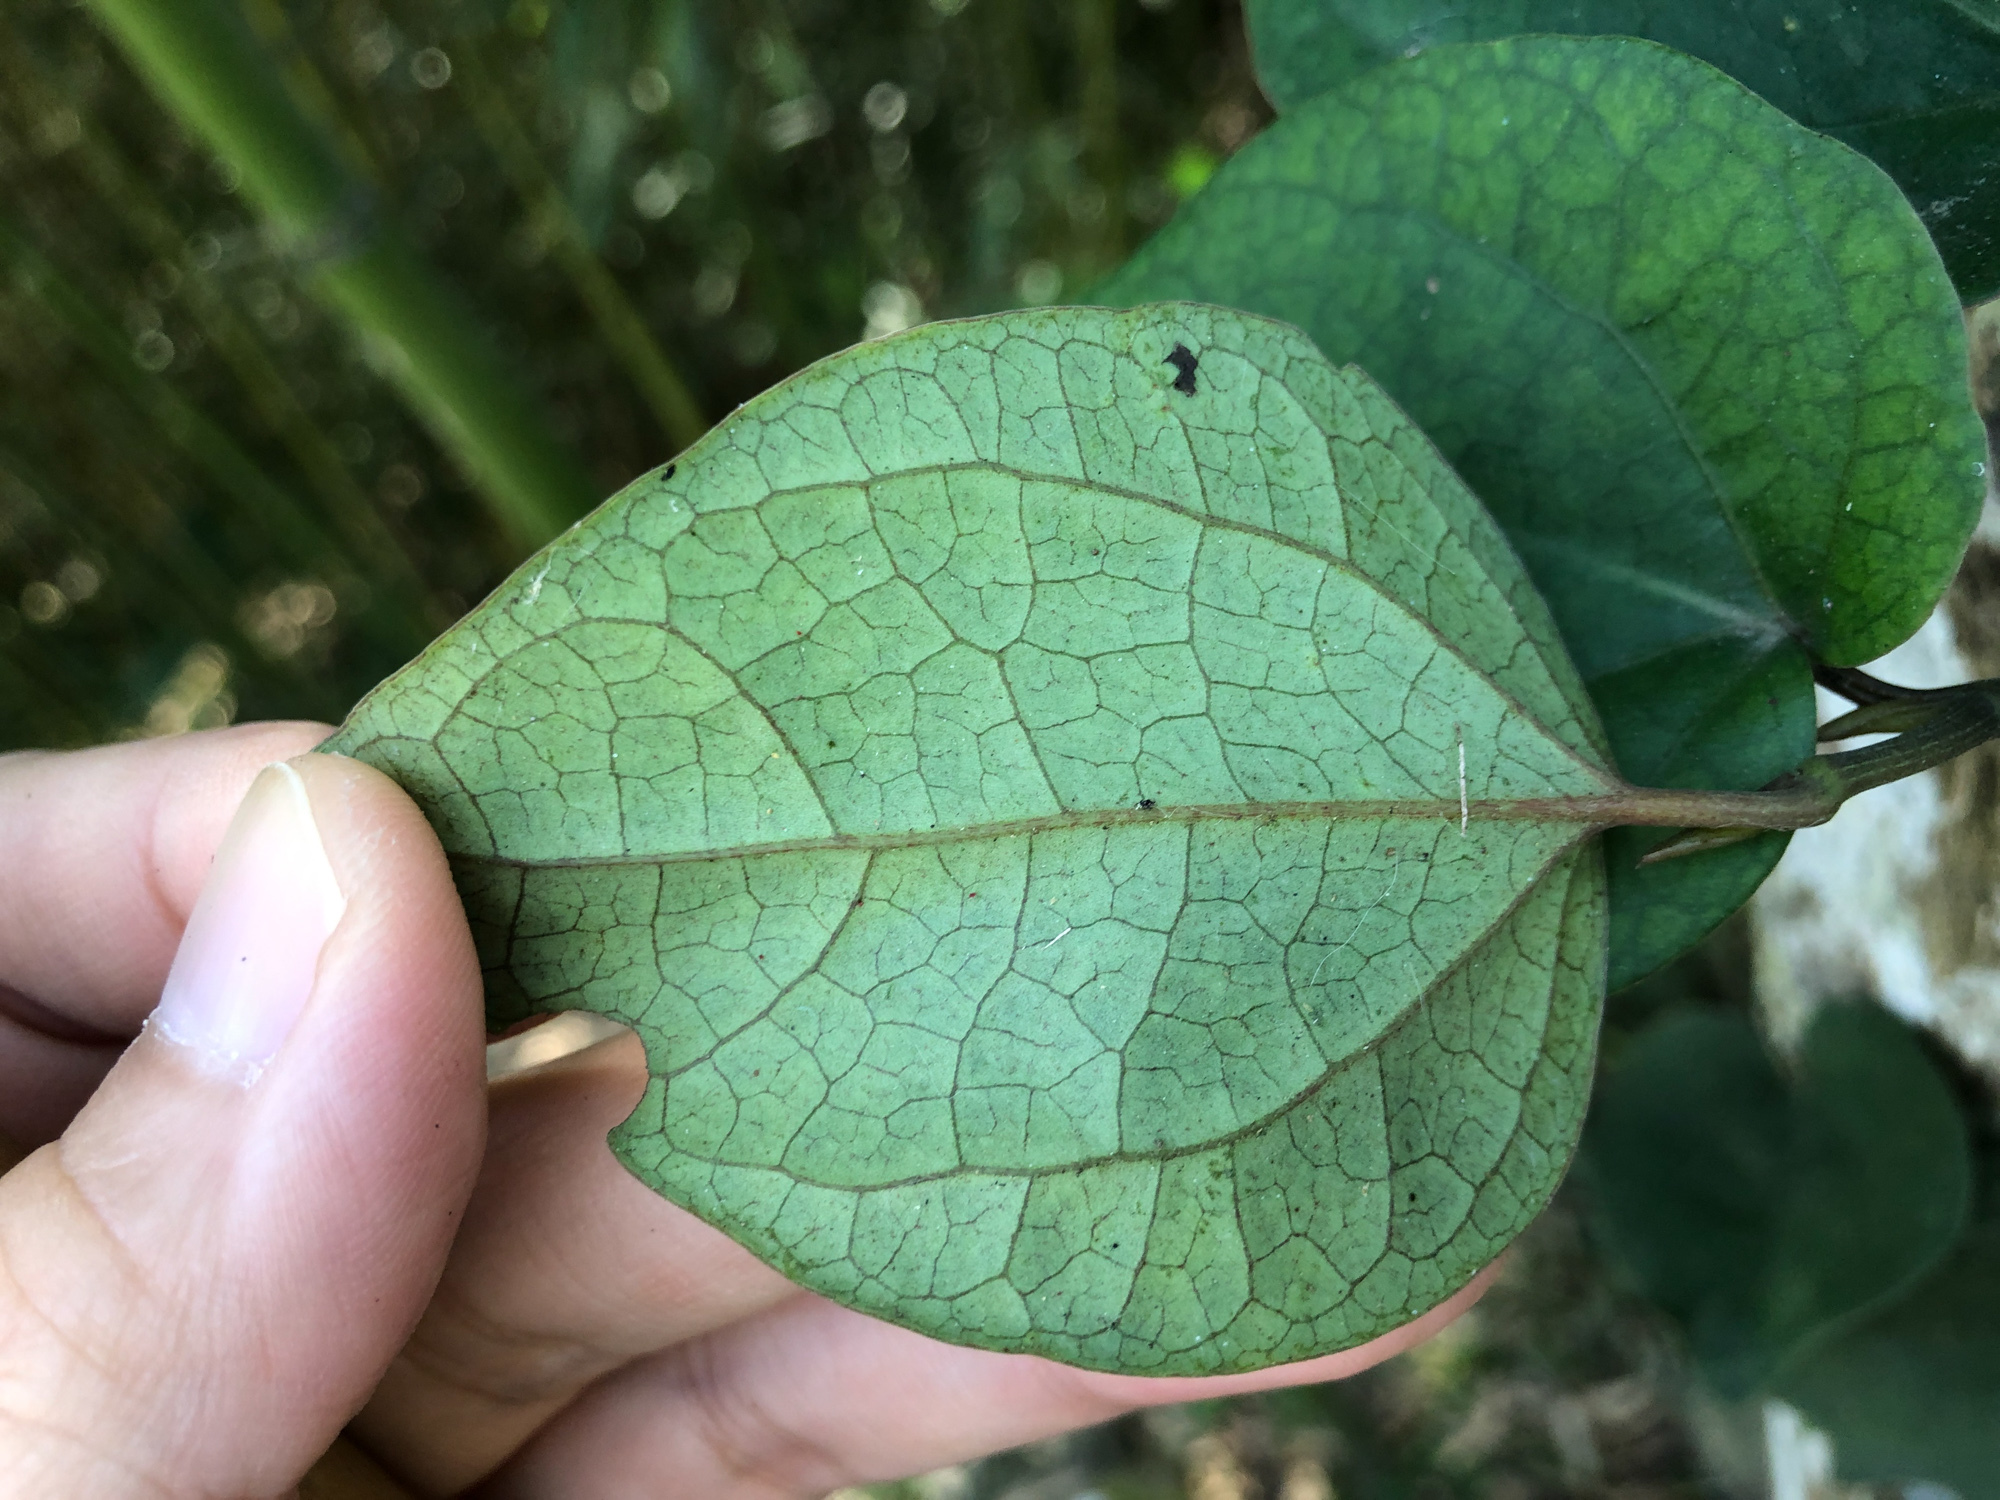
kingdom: Plantae
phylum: Tracheophyta
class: Magnoliopsida
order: Piperales
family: Piperaceae
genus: Piper
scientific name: Piper kadsura
